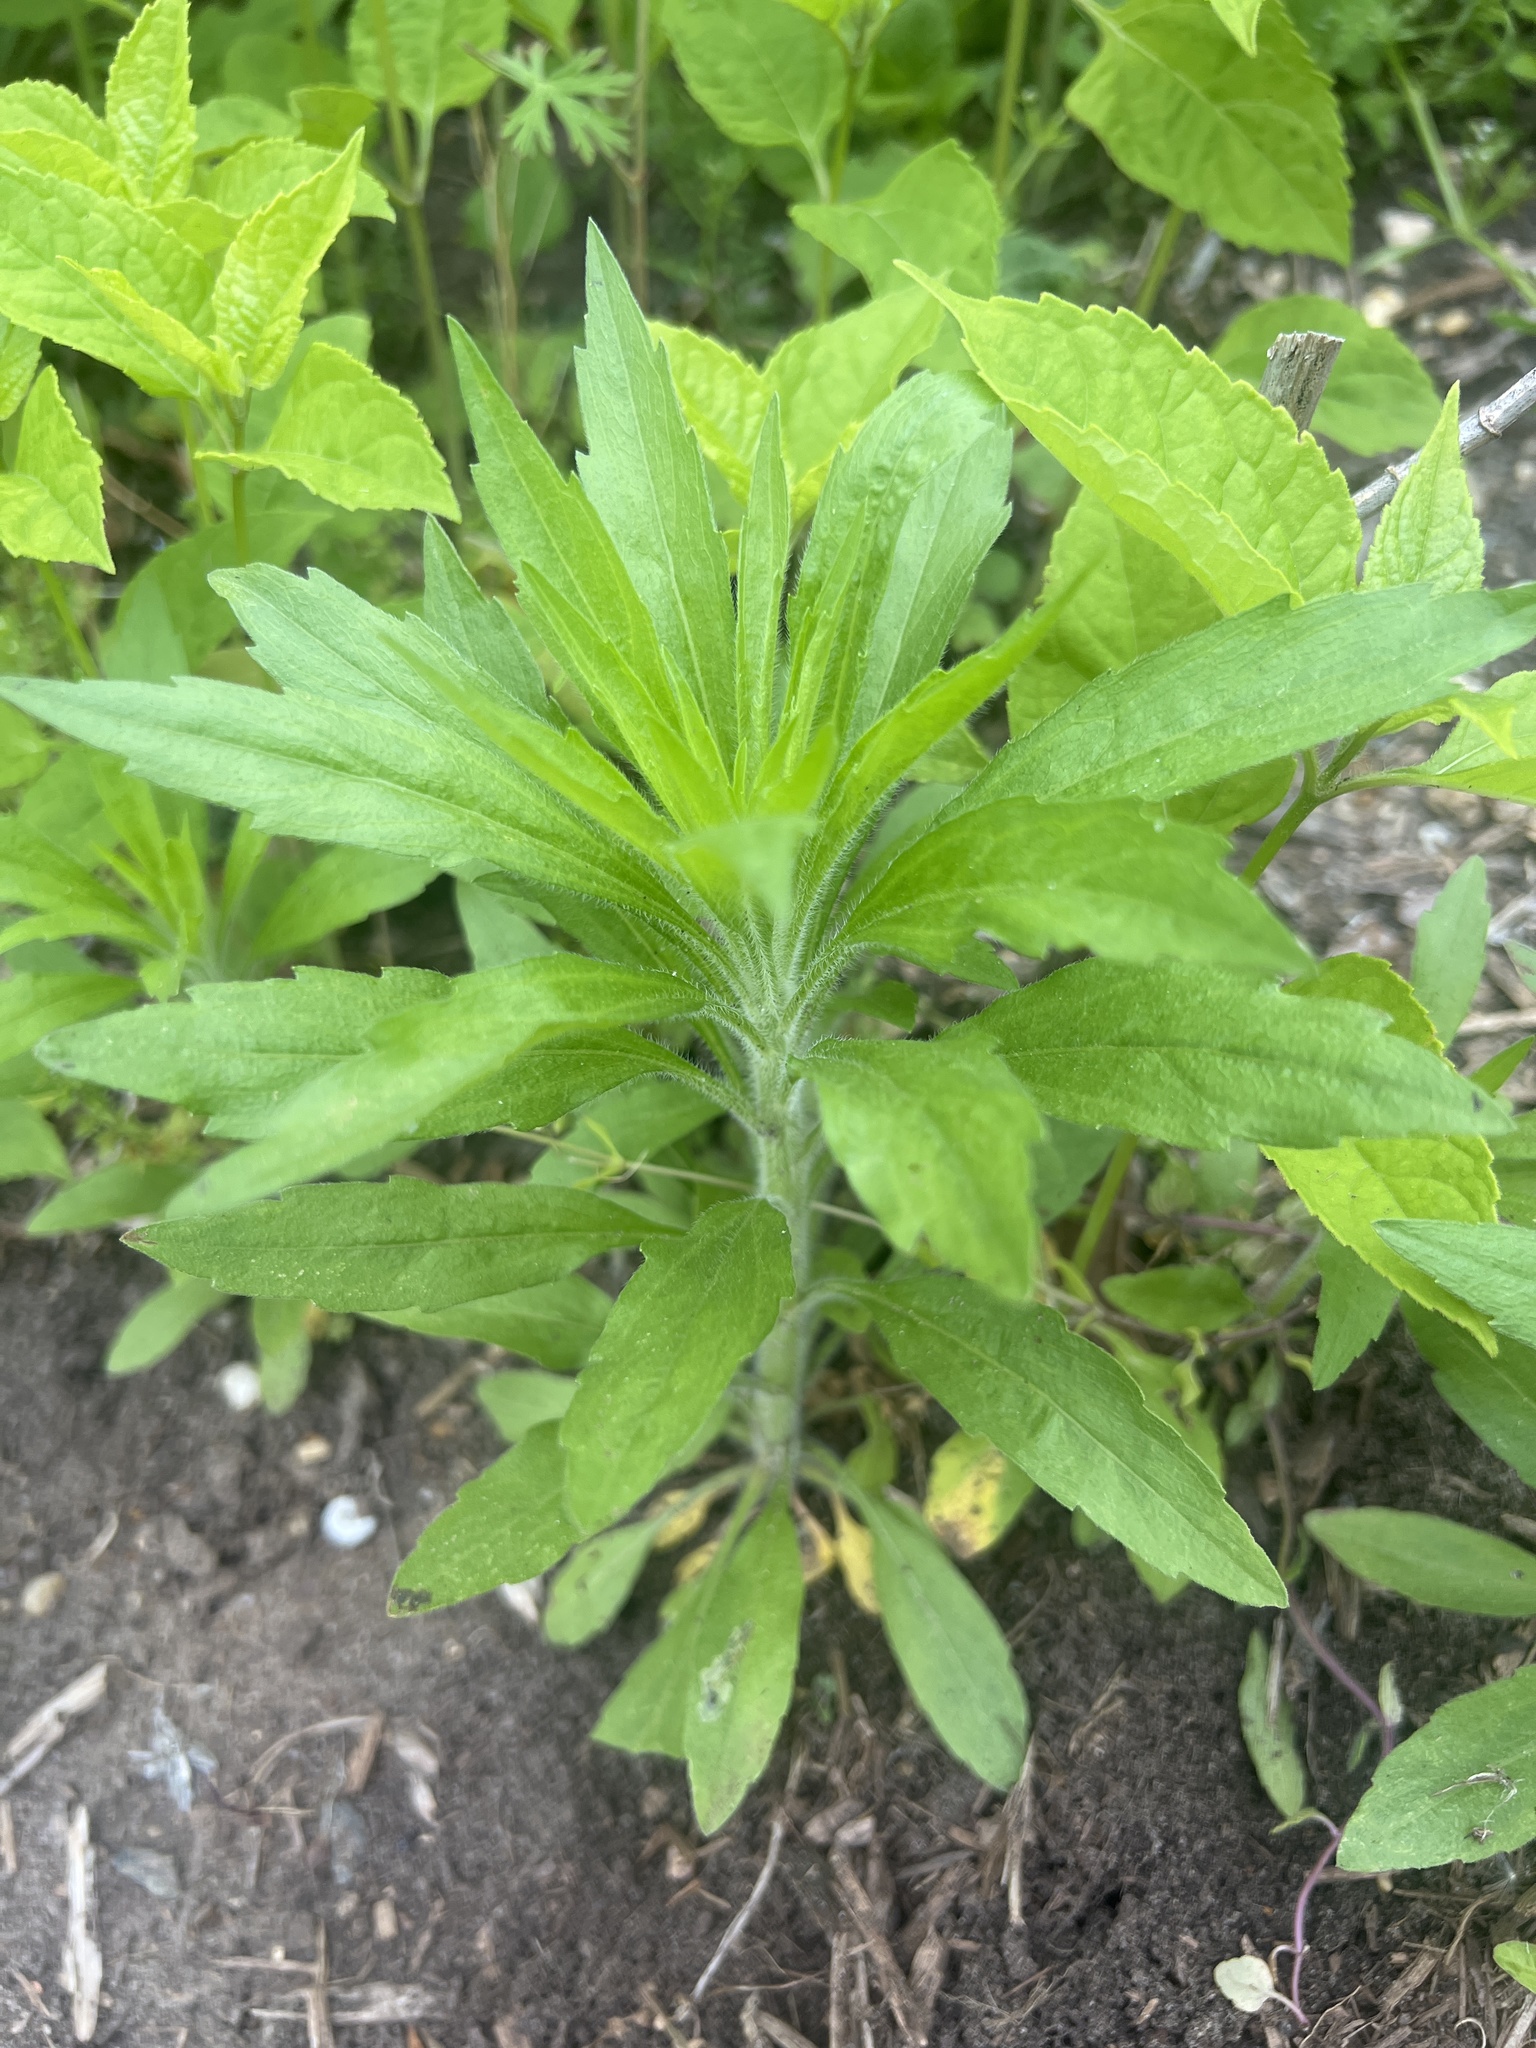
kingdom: Plantae
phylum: Tracheophyta
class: Magnoliopsida
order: Asterales
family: Asteraceae
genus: Erigeron
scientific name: Erigeron canadensis
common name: Canadian fleabane
